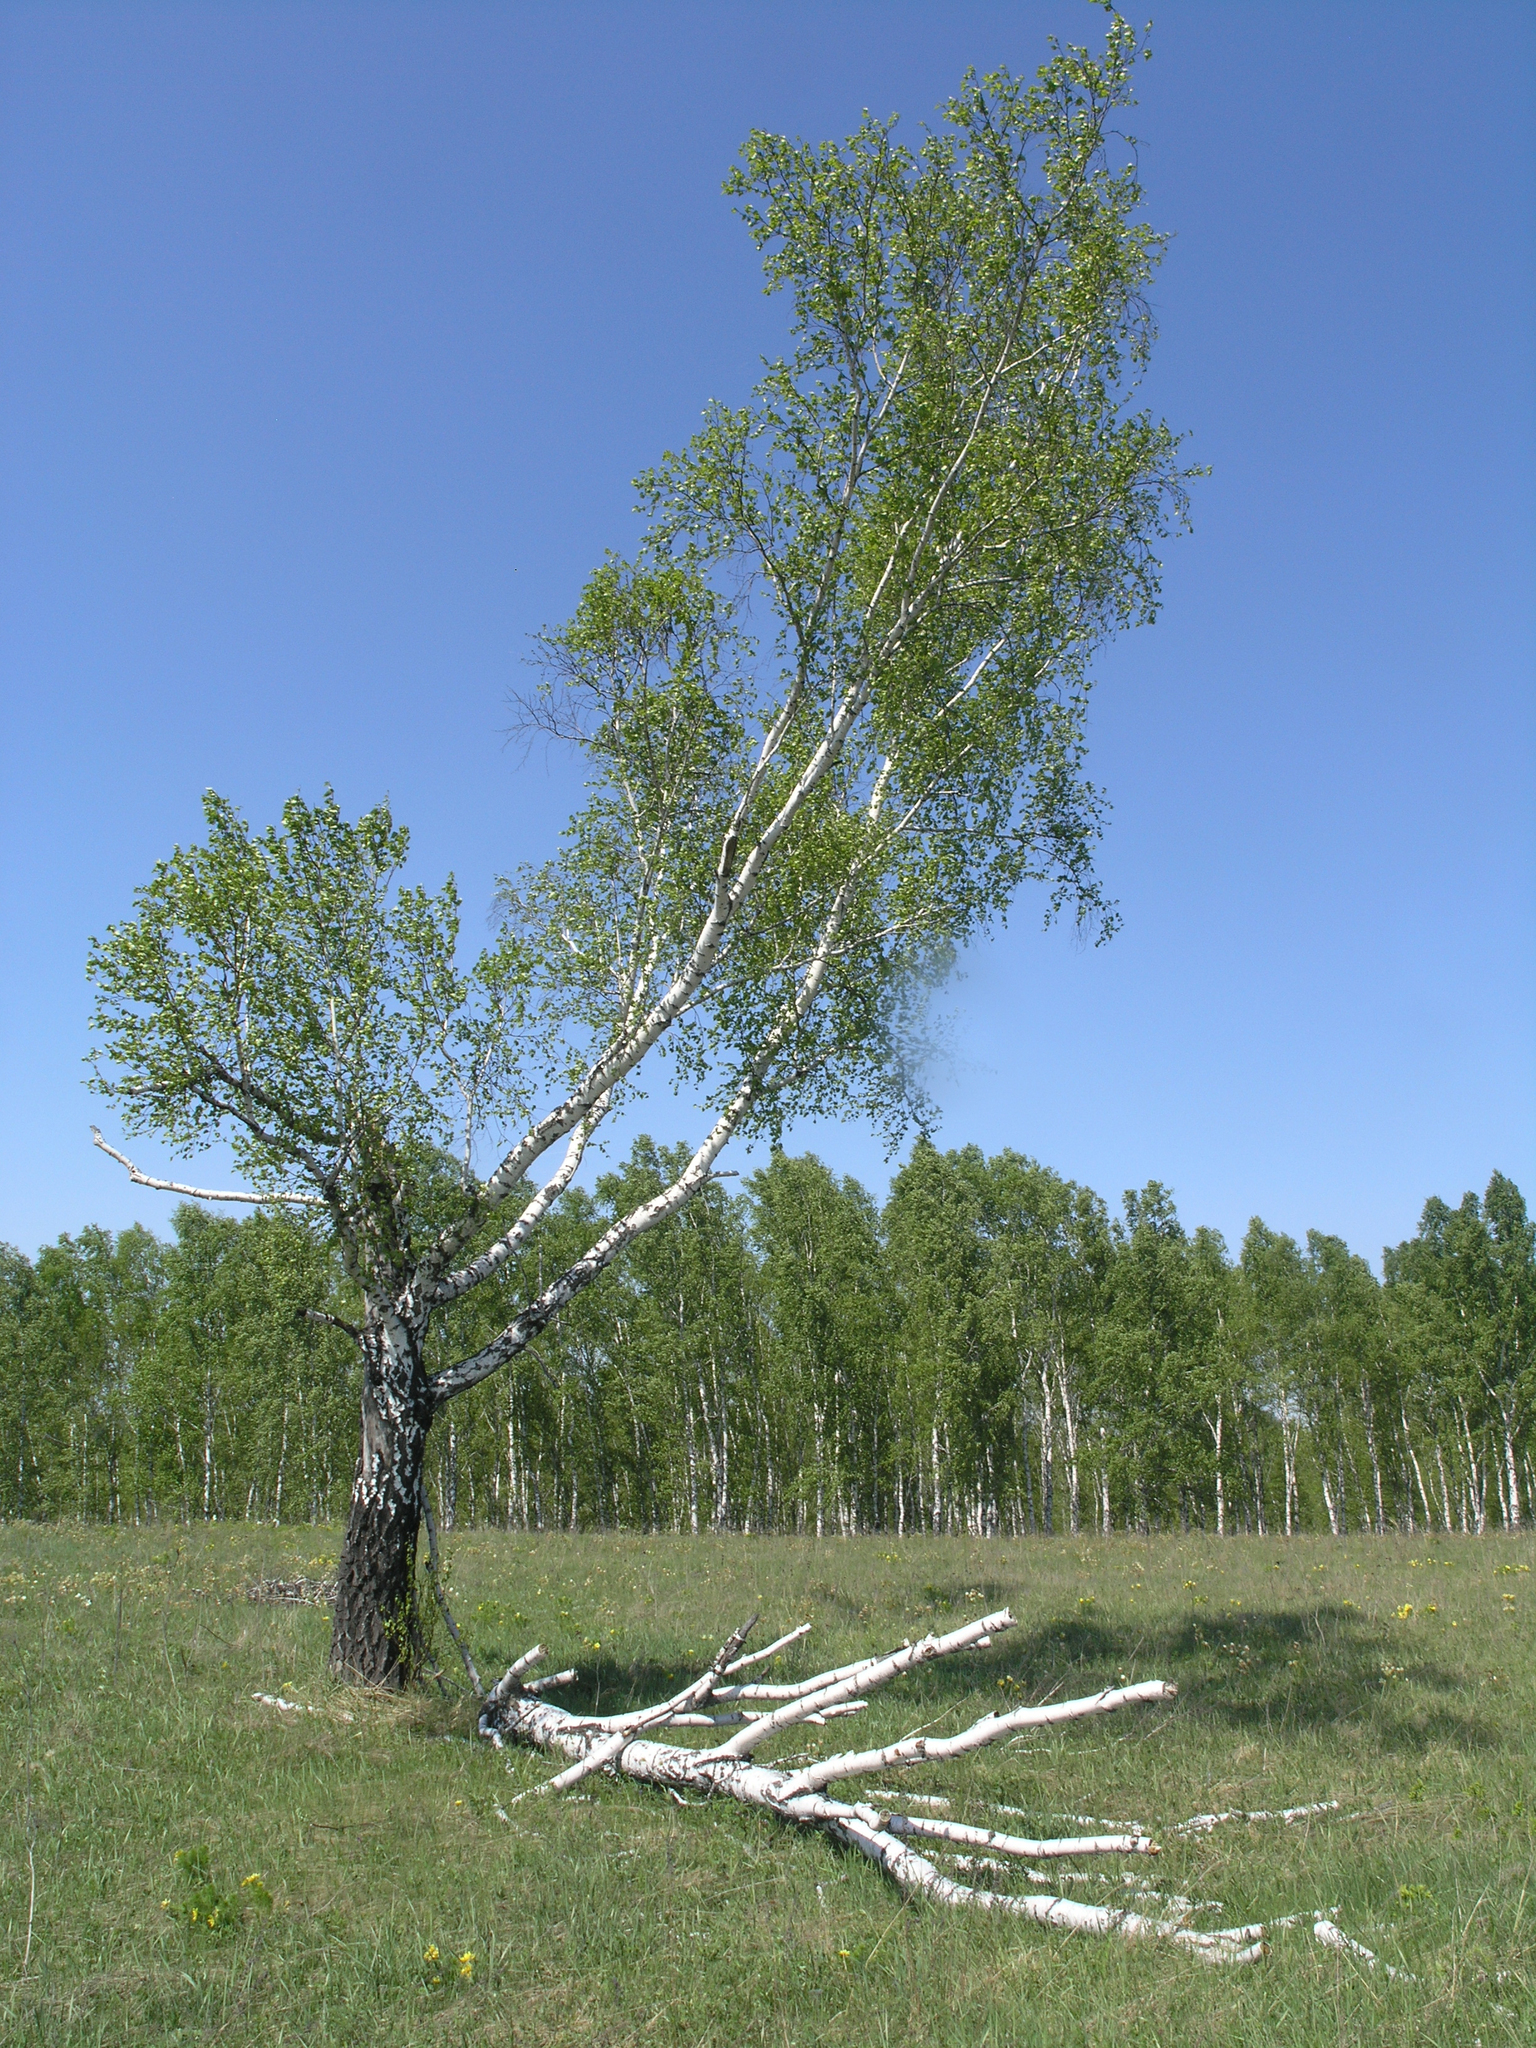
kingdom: Plantae
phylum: Tracheophyta
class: Magnoliopsida
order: Fagales
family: Betulaceae
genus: Betula
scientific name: Betula pendula
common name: Silver birch
